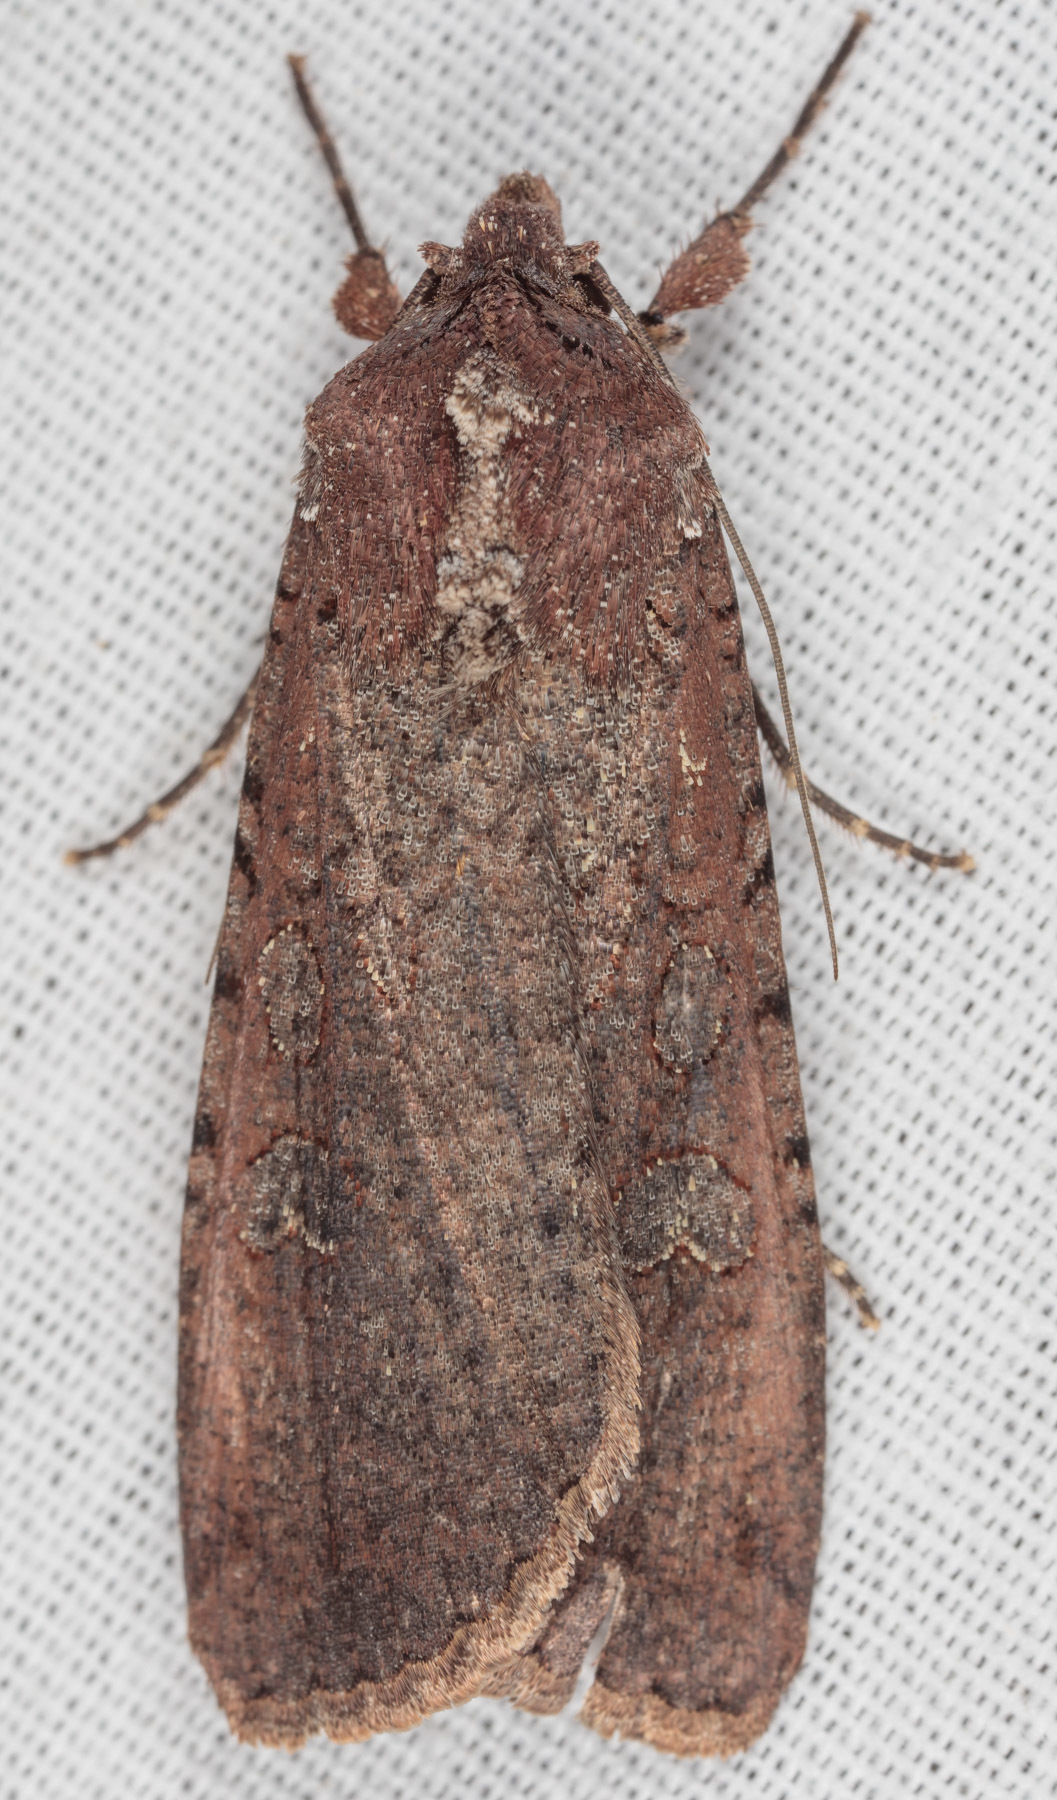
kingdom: Animalia
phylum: Arthropoda
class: Insecta
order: Lepidoptera
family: Noctuidae
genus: Peridroma
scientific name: Peridroma saucia
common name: Pearly underwing
